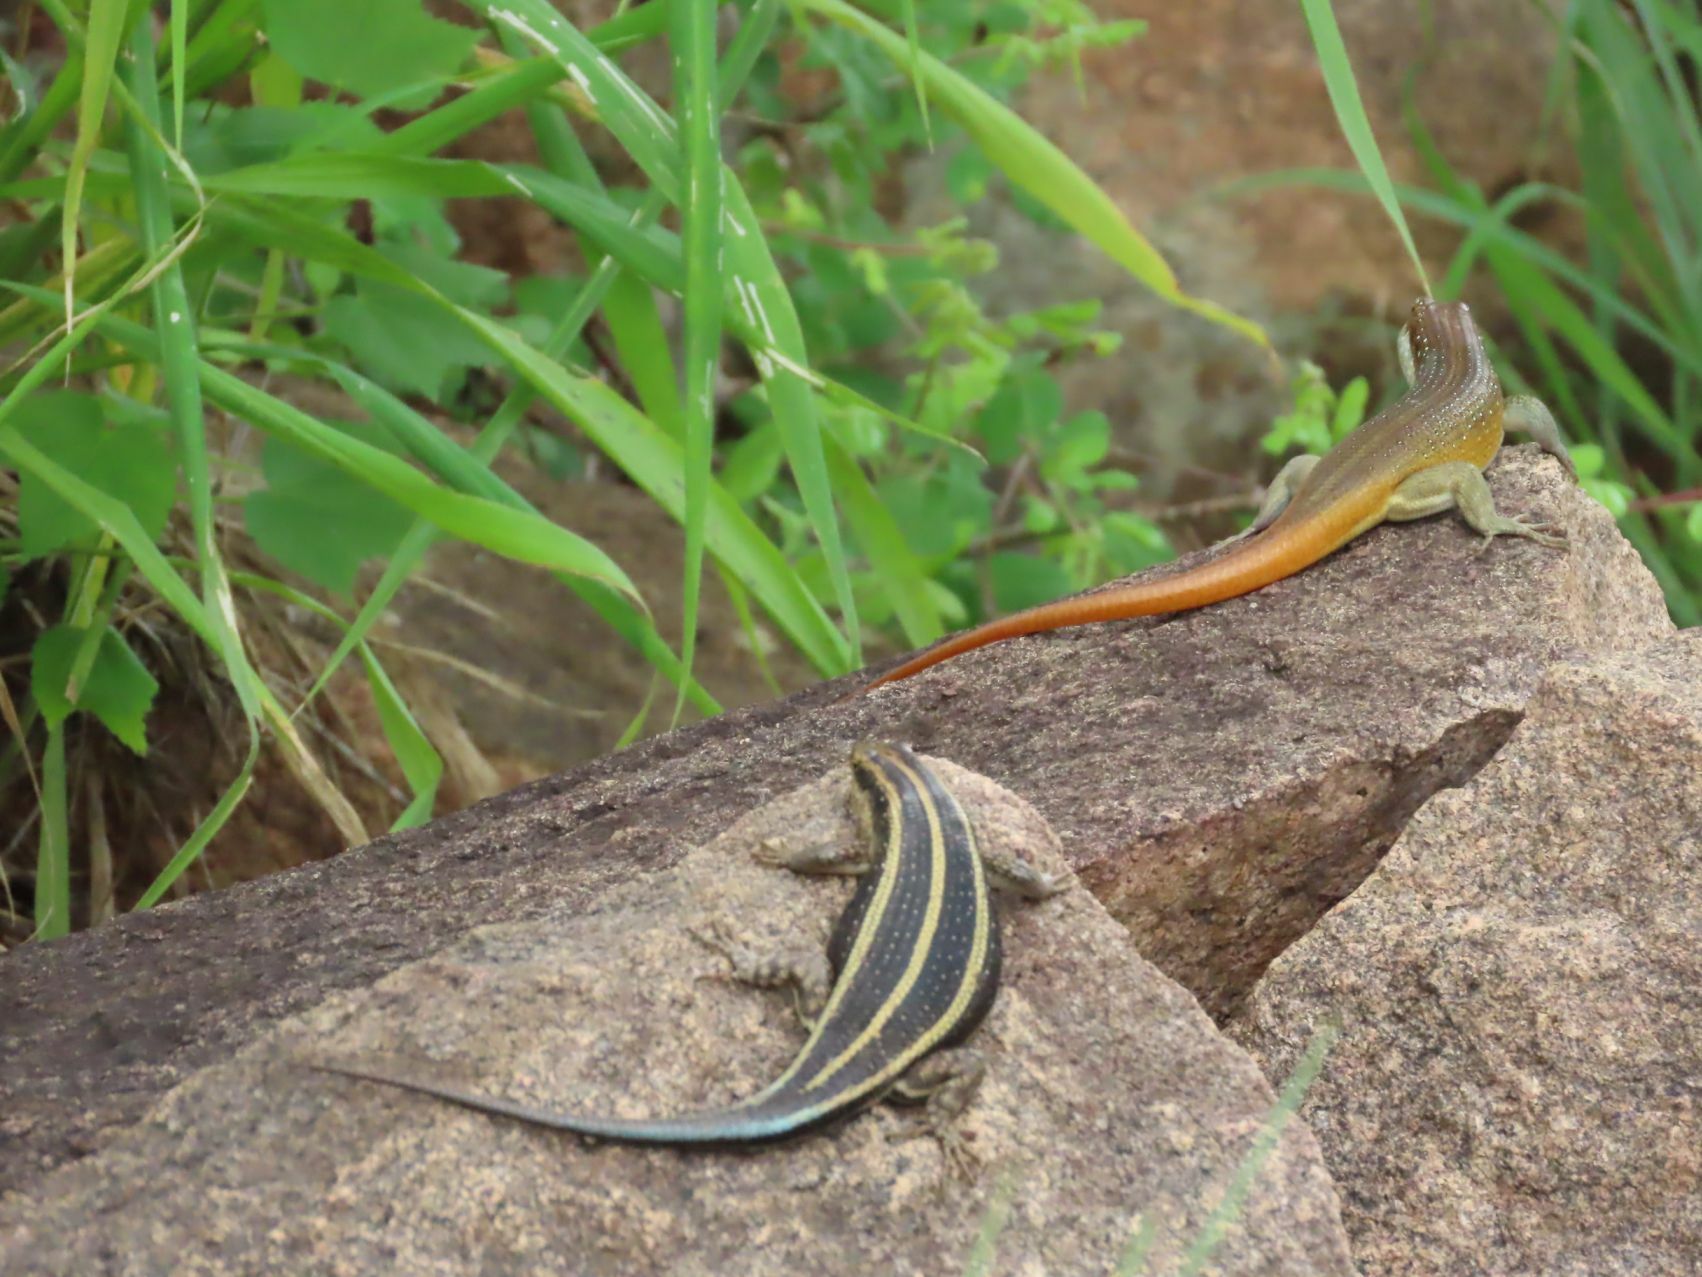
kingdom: Animalia
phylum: Chordata
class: Squamata
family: Scincidae
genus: Trachylepis
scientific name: Trachylepis margaritifera
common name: Rainbow skink
